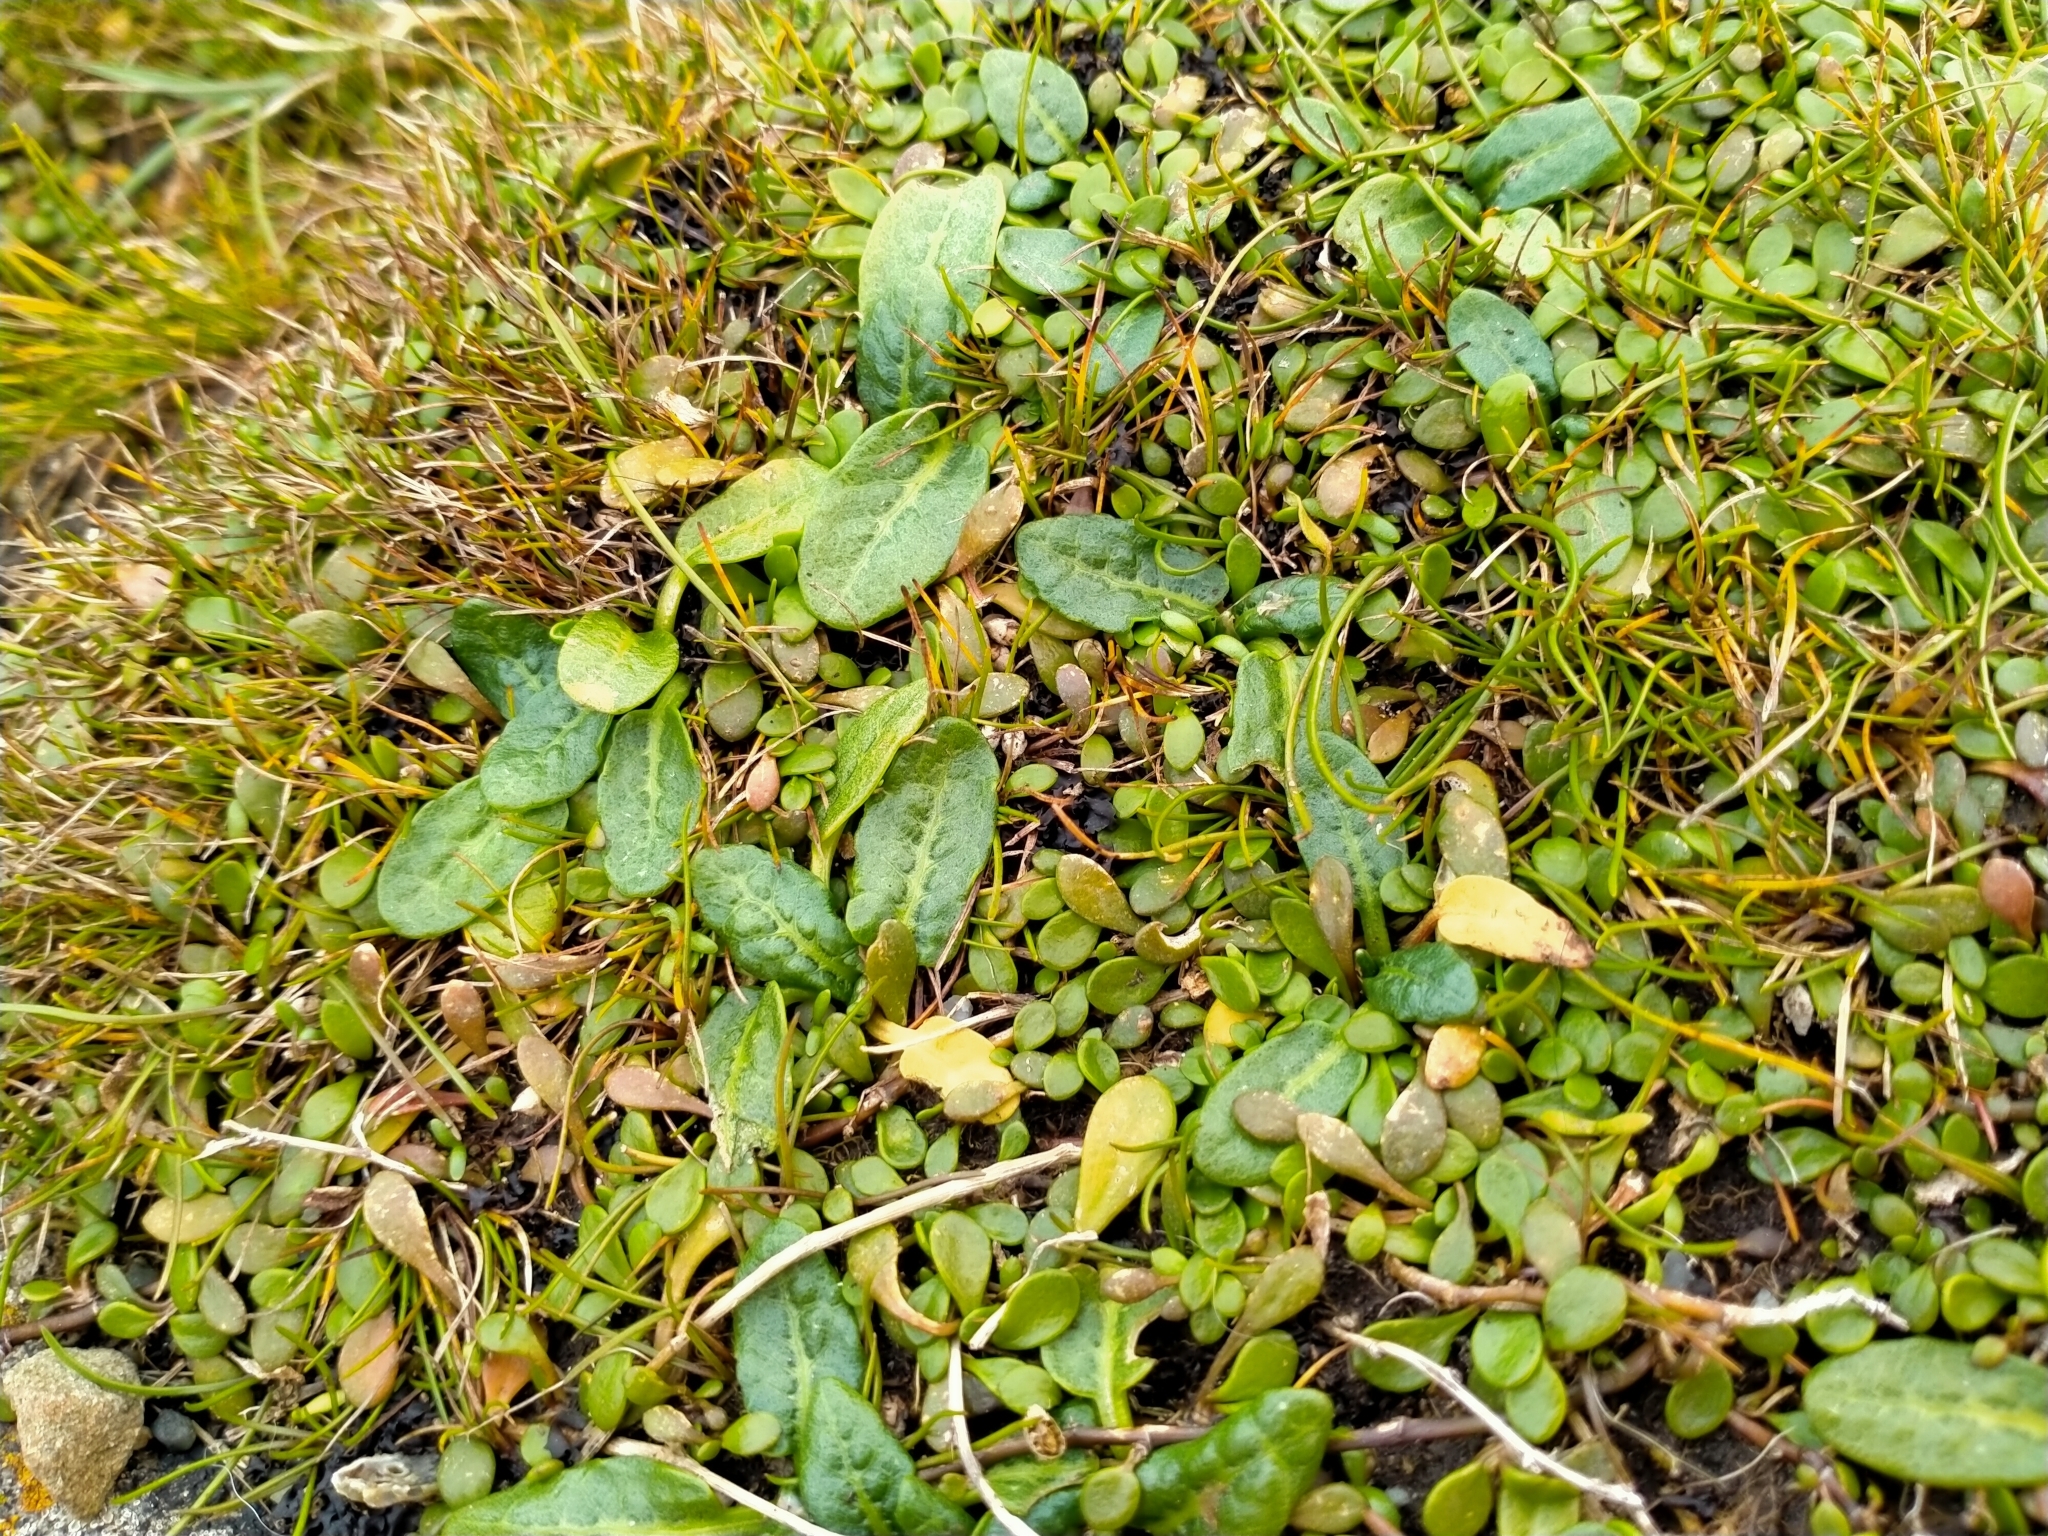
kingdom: Plantae
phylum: Tracheophyta
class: Magnoliopsida
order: Caryophyllales
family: Polygonaceae
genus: Rumex
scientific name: Rumex neglectus
